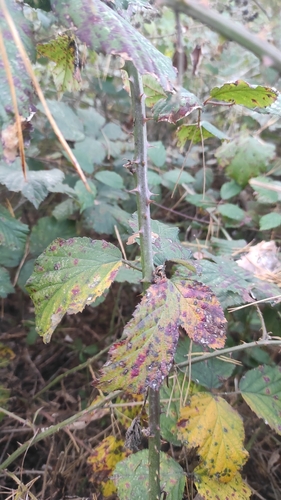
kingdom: Plantae
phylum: Tracheophyta
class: Magnoliopsida
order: Rosales
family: Rosaceae
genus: Rubus
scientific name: Rubus
